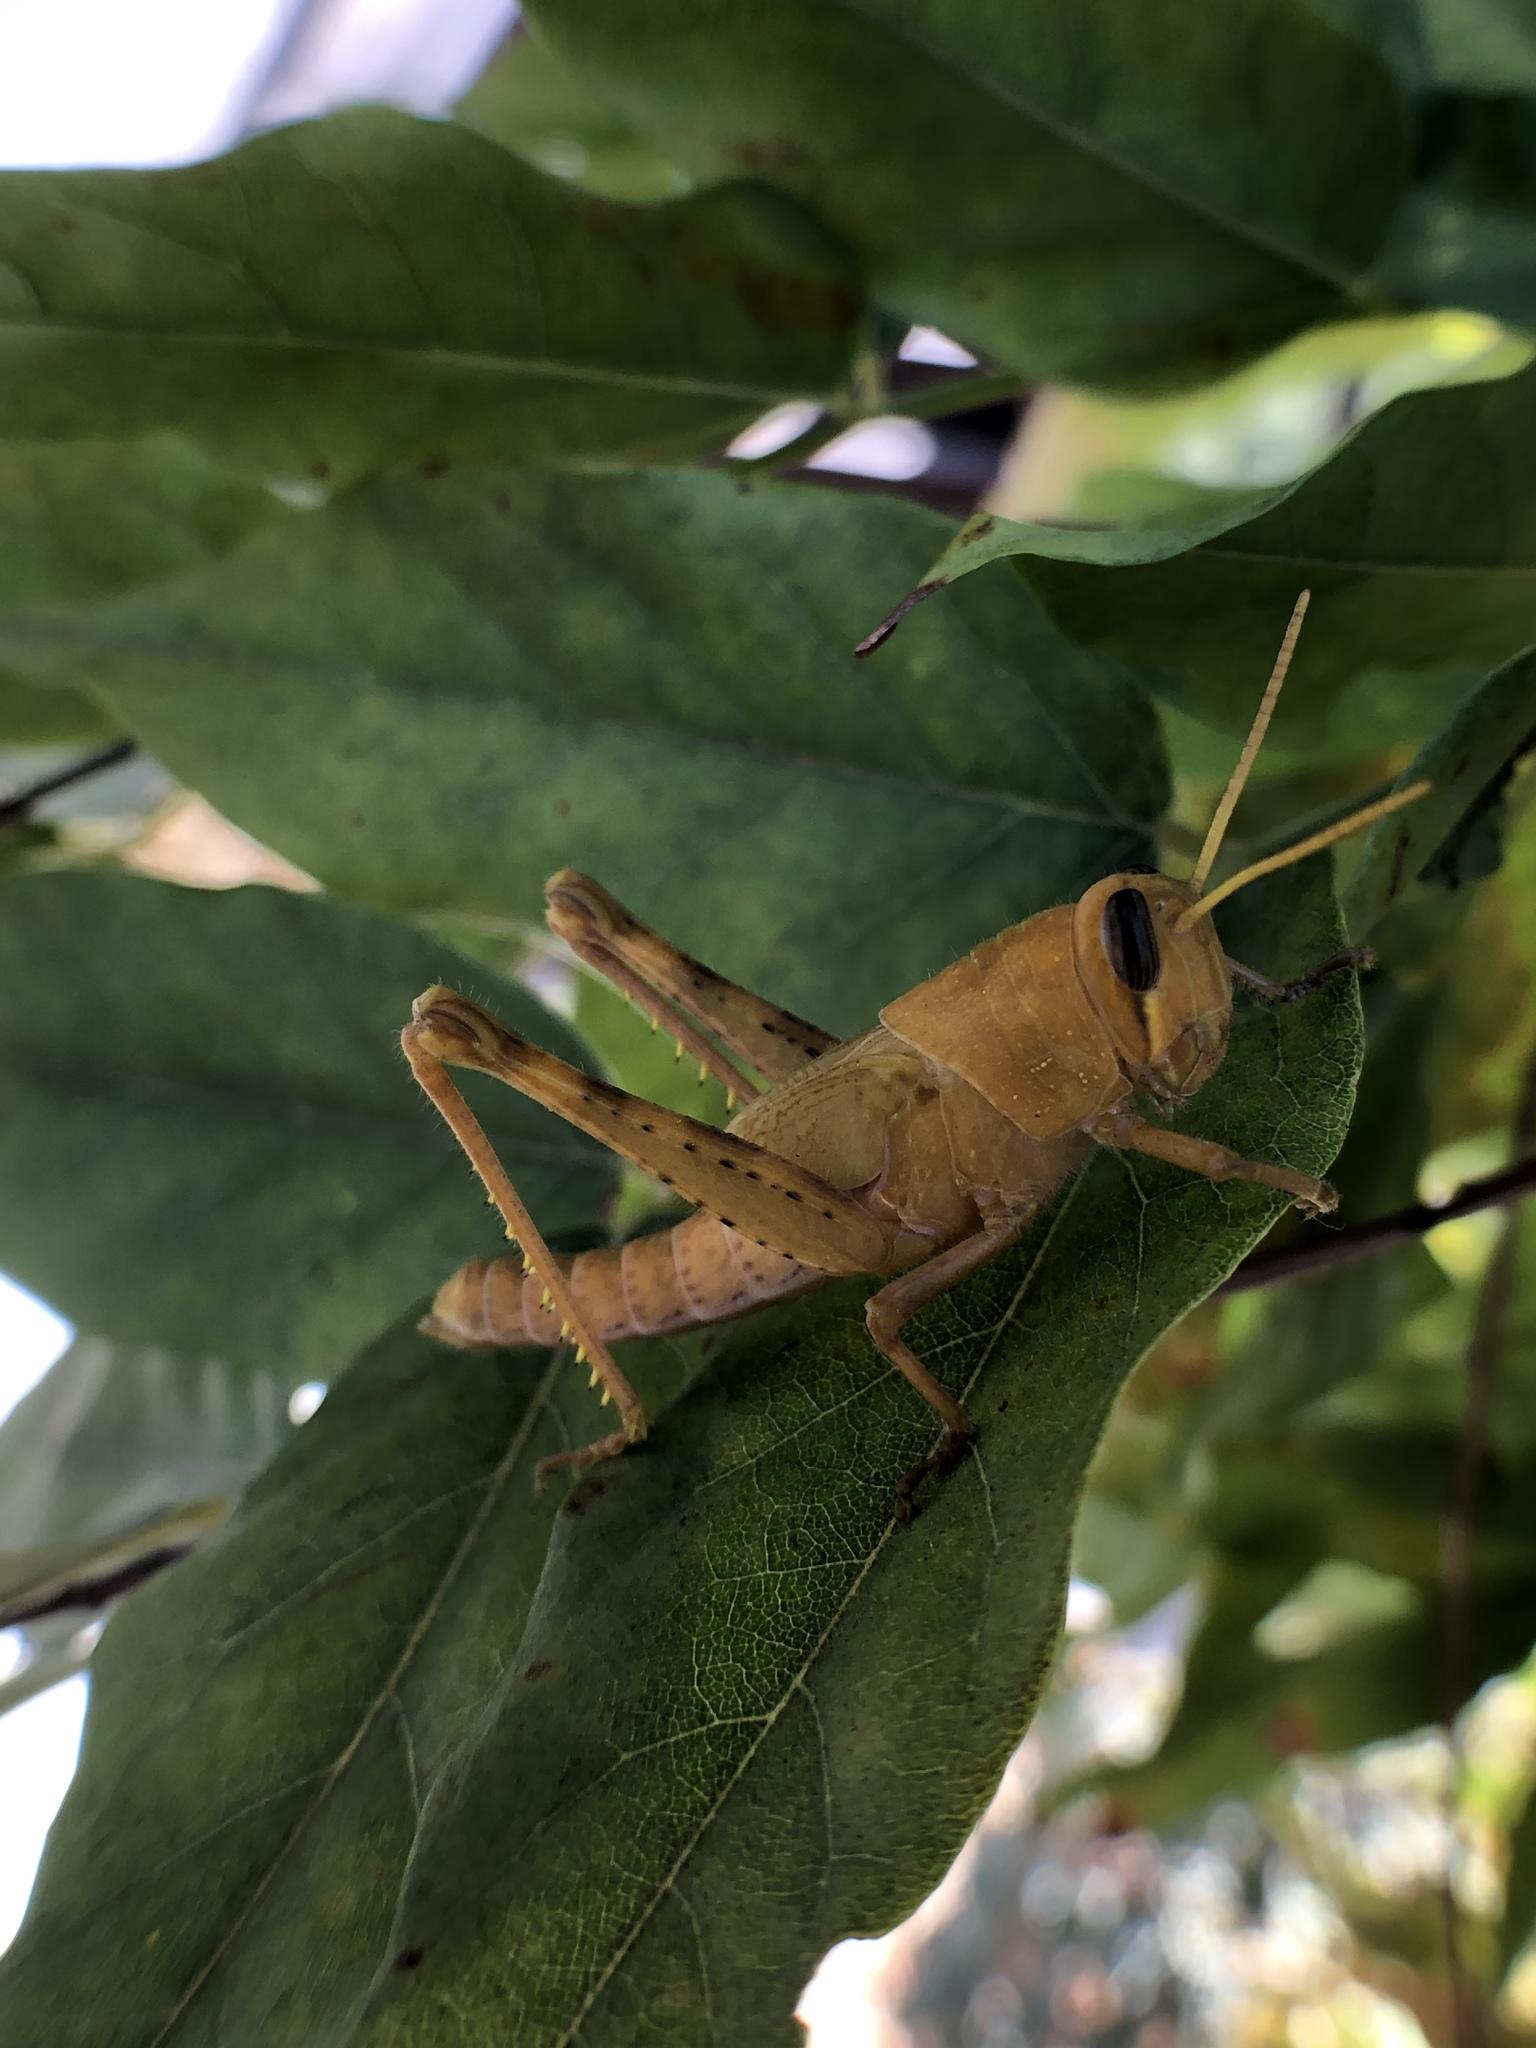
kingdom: Animalia
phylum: Arthropoda
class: Insecta
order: Orthoptera
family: Acrididae
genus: Schistocerca
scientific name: Schistocerca nitens
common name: Vagrant grasshopper
